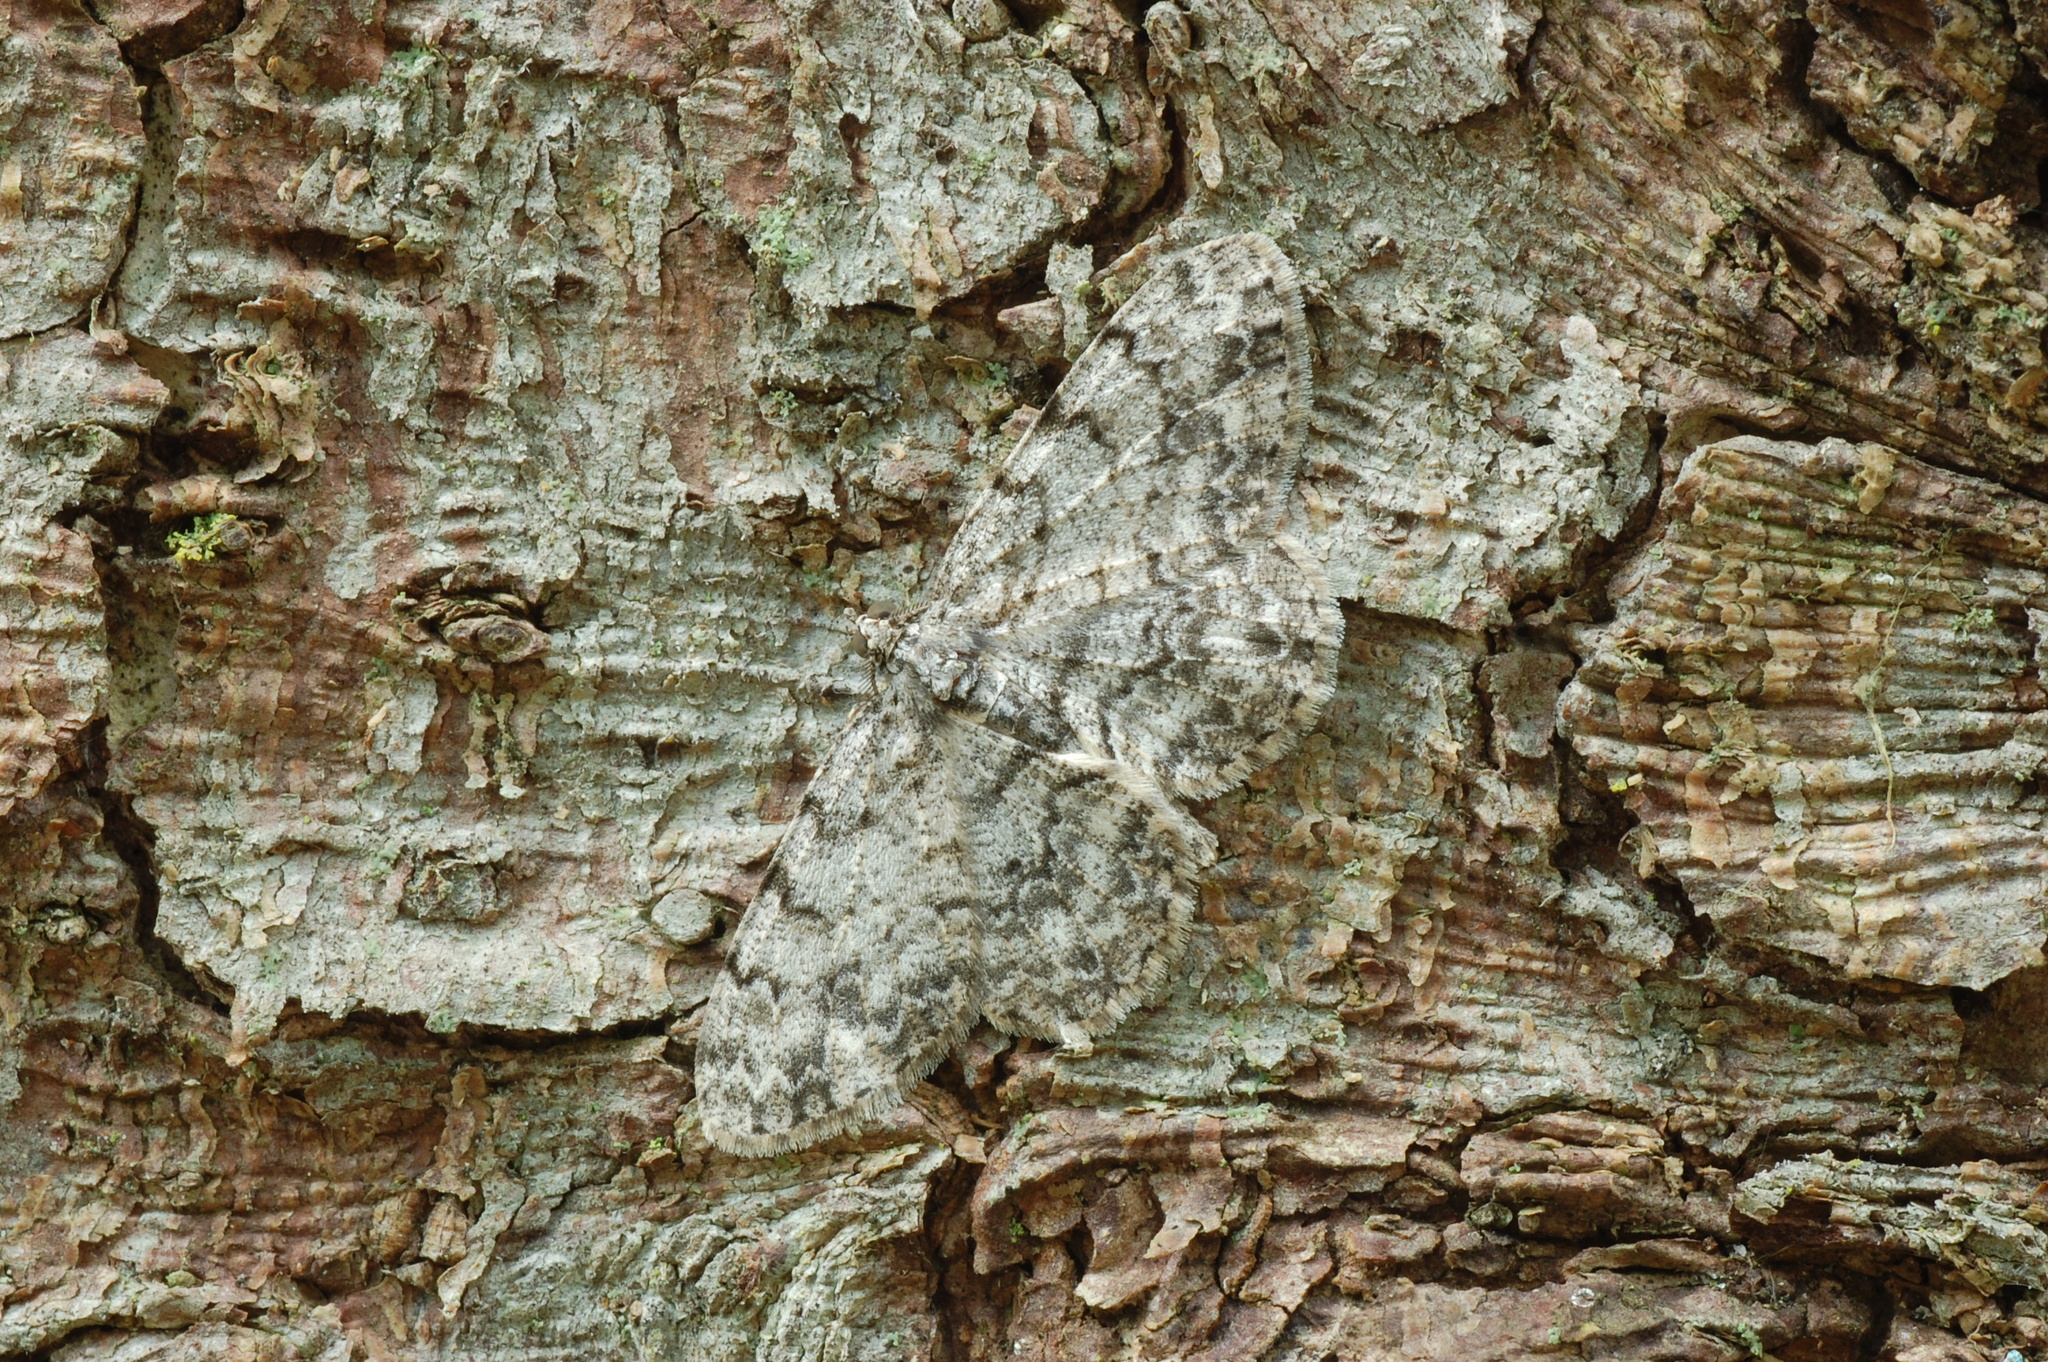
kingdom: Animalia
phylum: Arthropoda
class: Insecta
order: Lepidoptera
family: Geometridae
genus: Protoboarmia
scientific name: Protoboarmia porcelaria
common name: Porcelain gray
